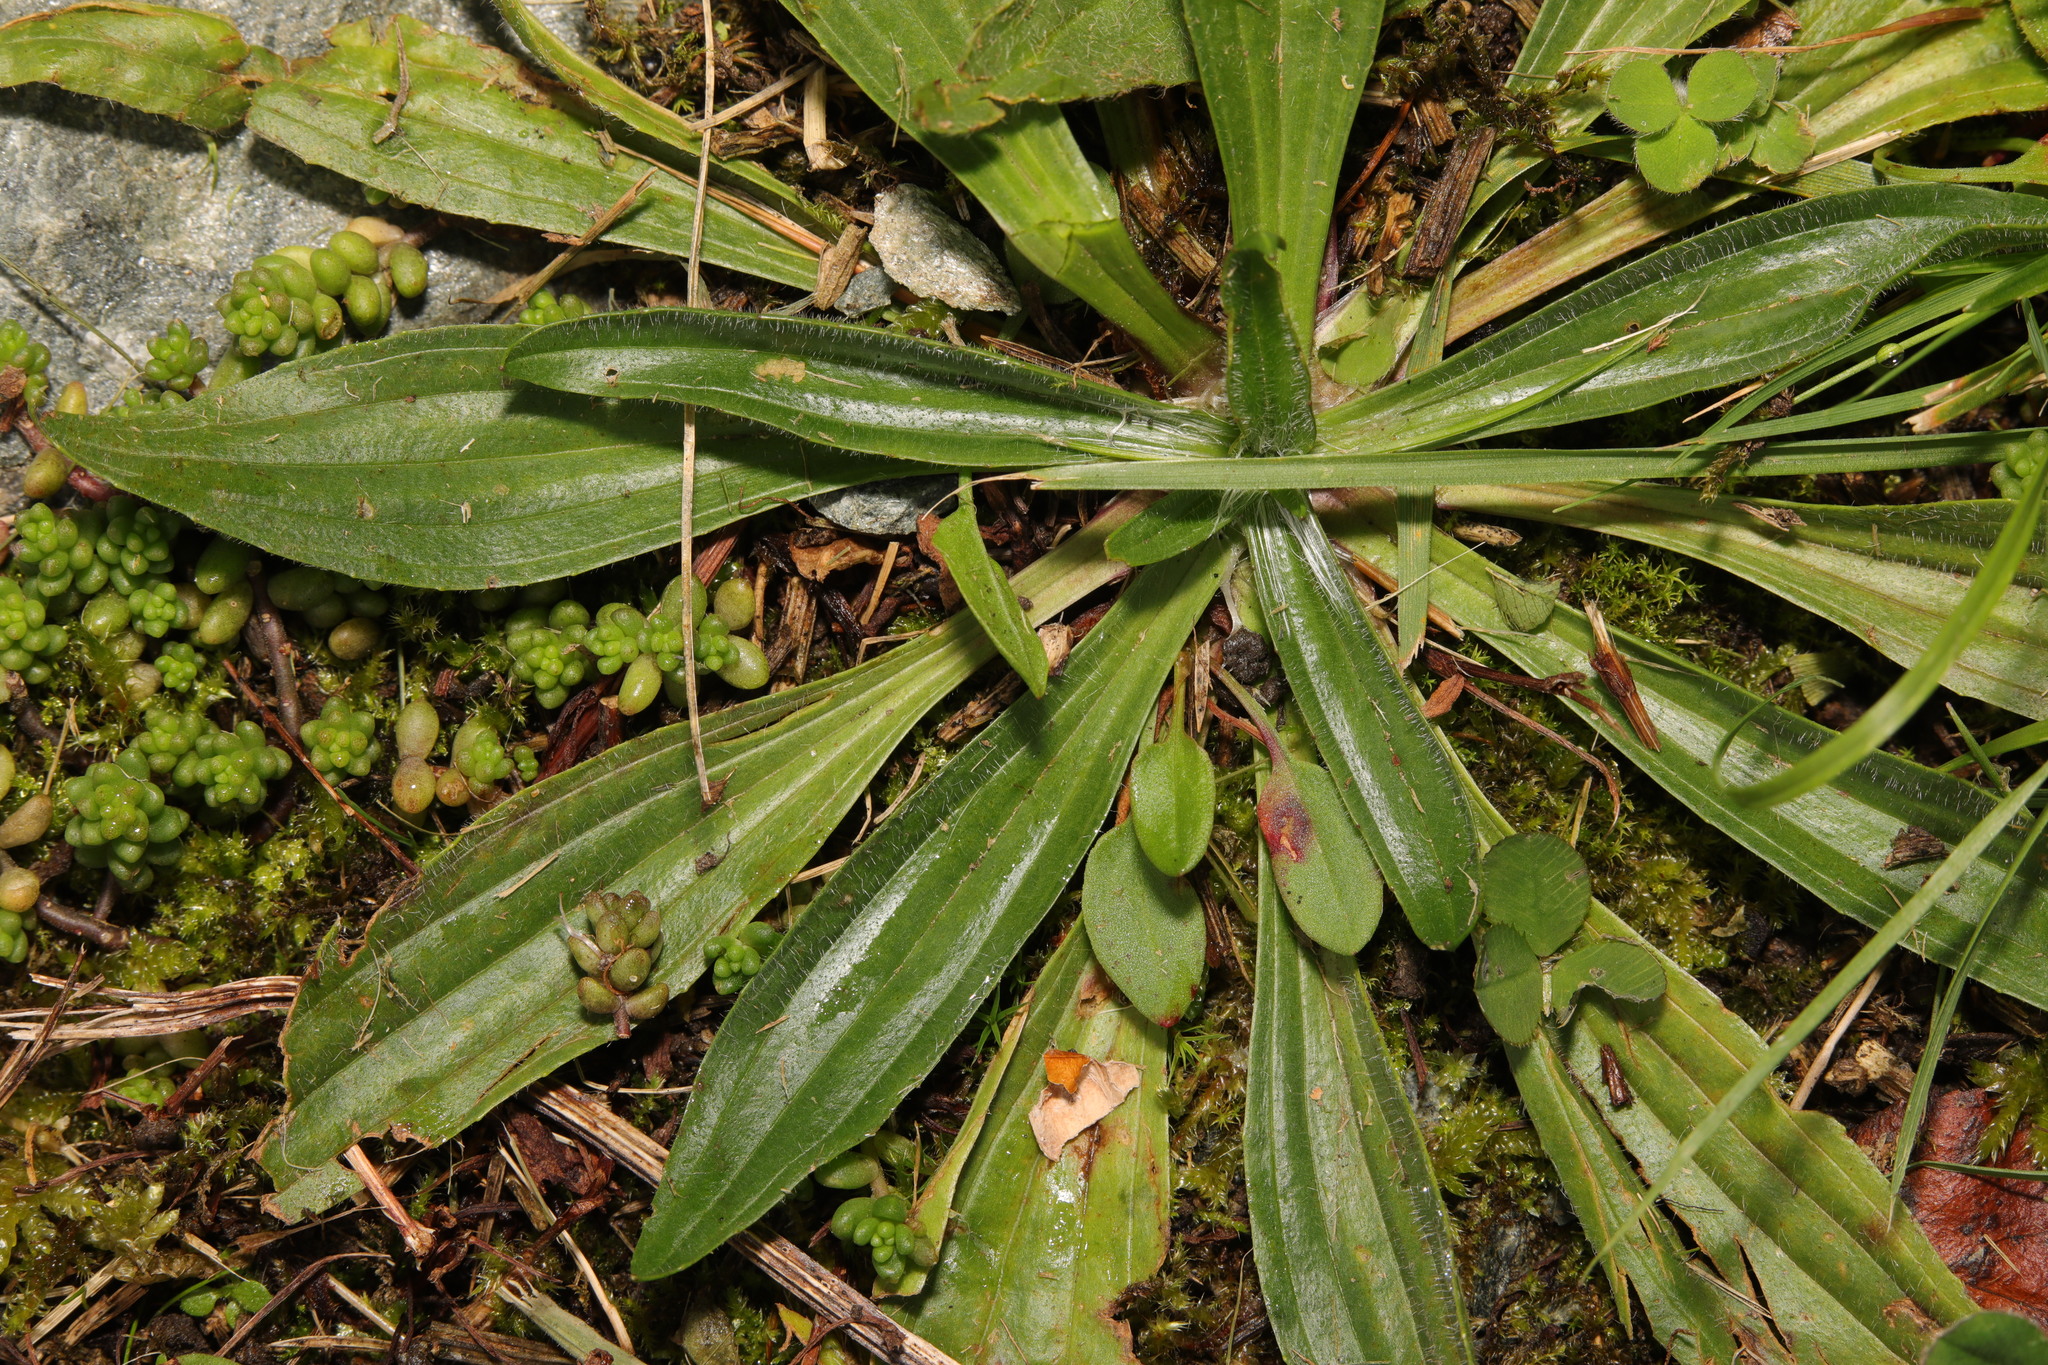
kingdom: Plantae
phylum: Tracheophyta
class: Magnoliopsida
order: Lamiales
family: Plantaginaceae
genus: Plantago
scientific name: Plantago lanceolata
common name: Ribwort plantain
